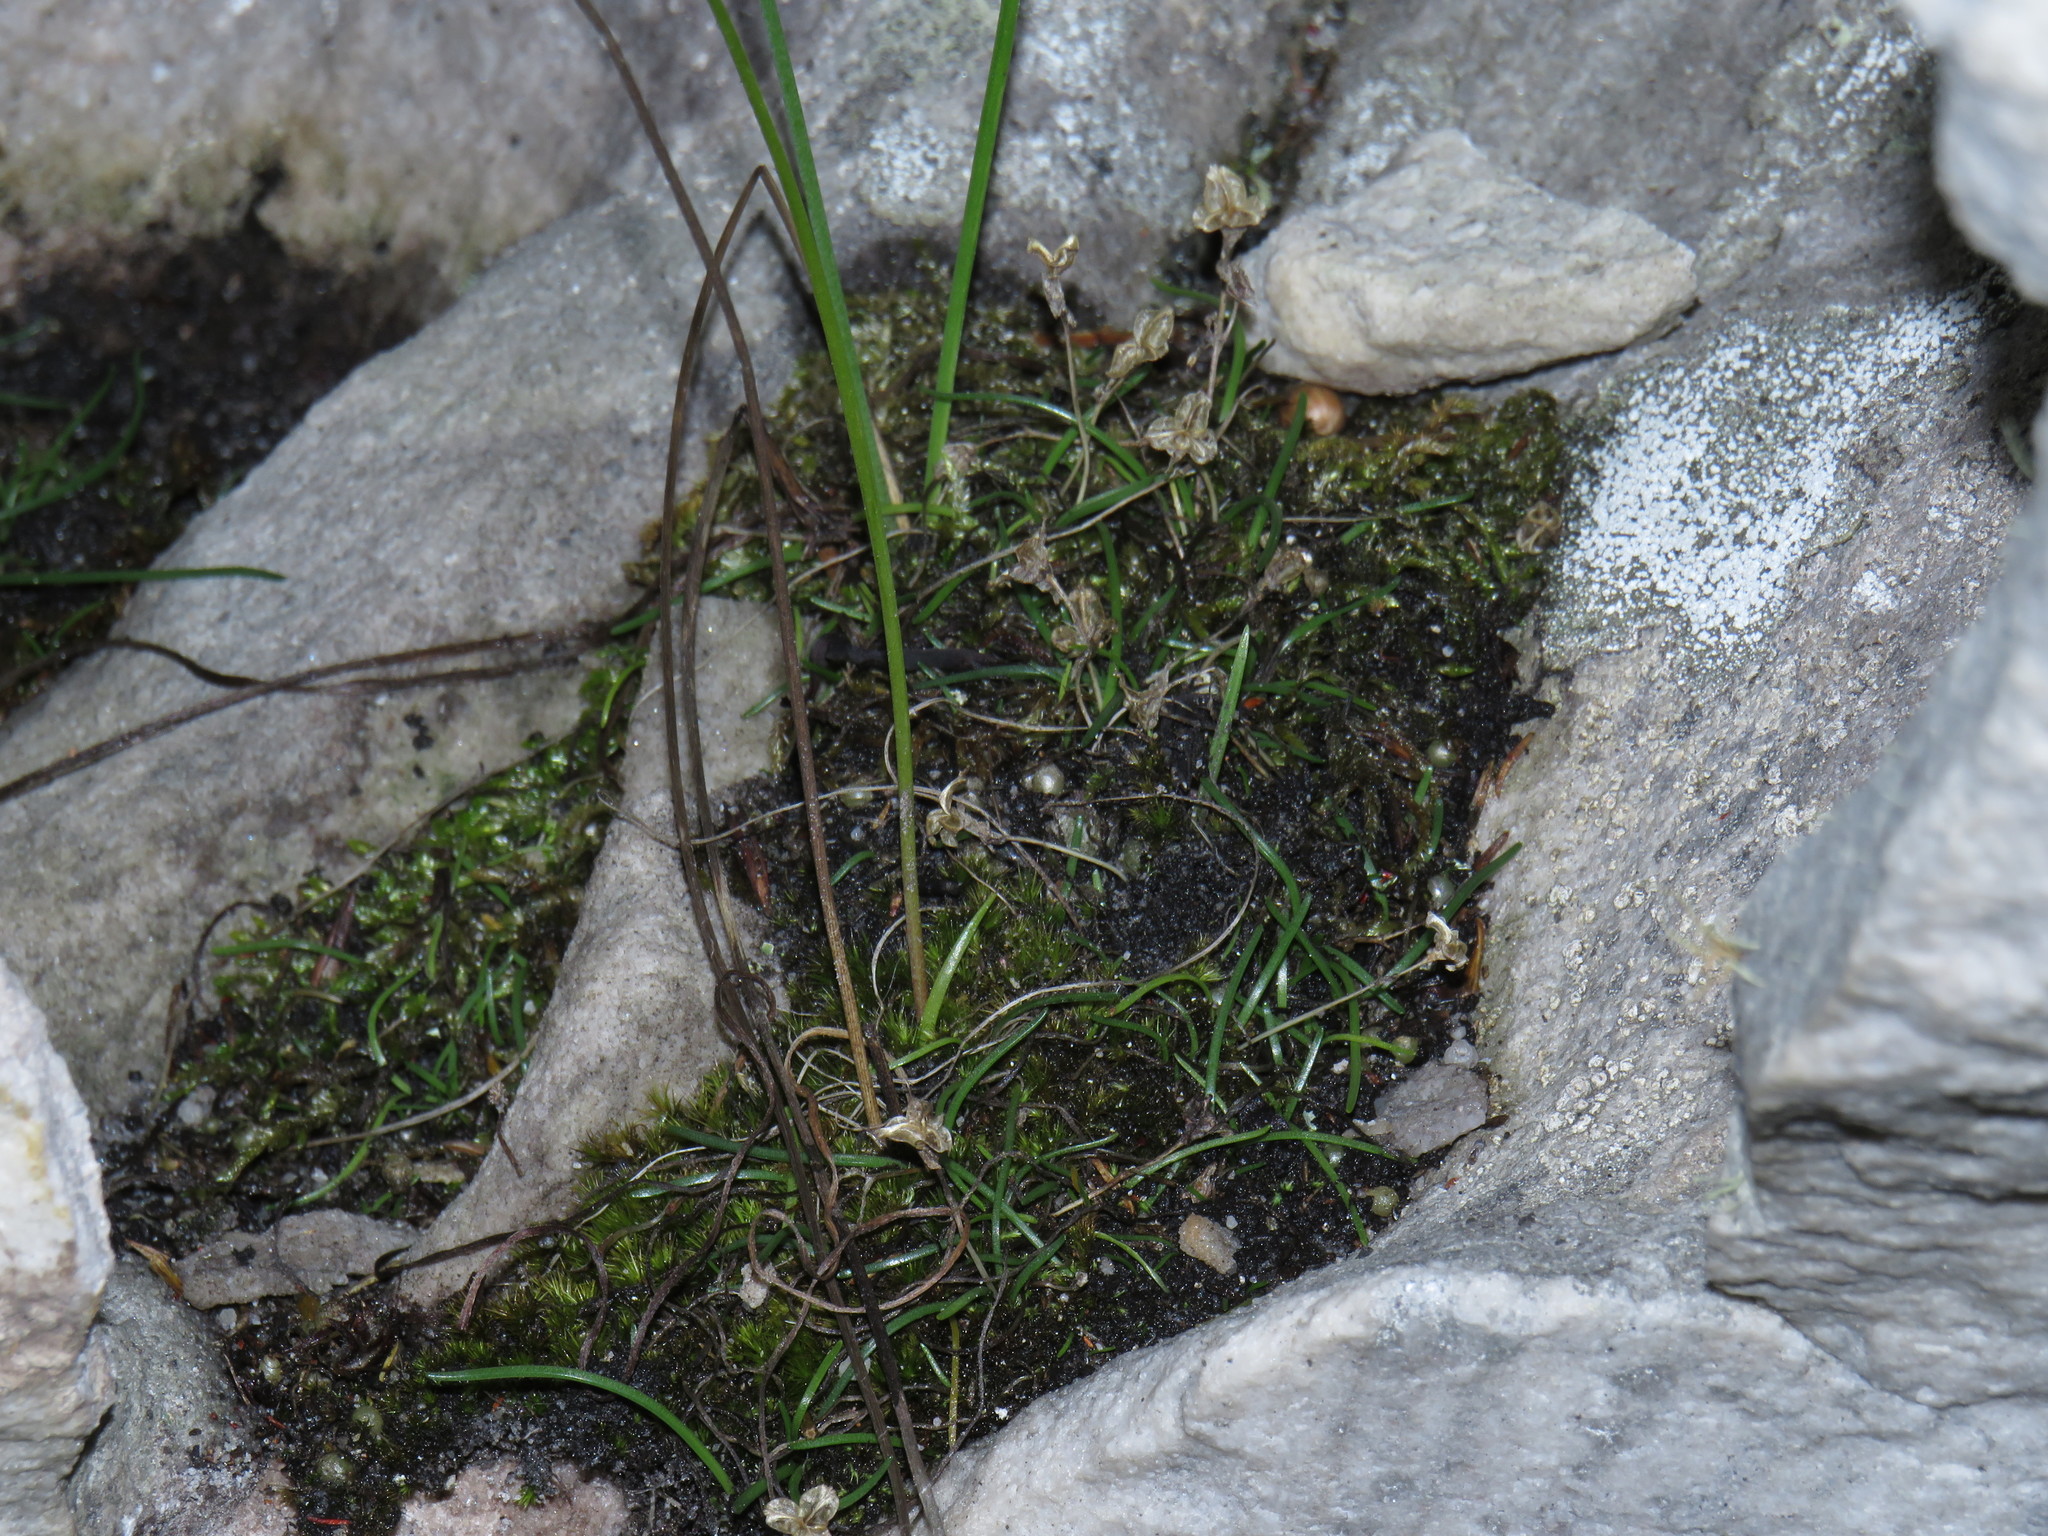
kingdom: Plantae
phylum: Tracheophyta
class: Liliopsida
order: Asparagales
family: Asparagaceae
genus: Ornithogalum
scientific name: Ornithogalum niveum
